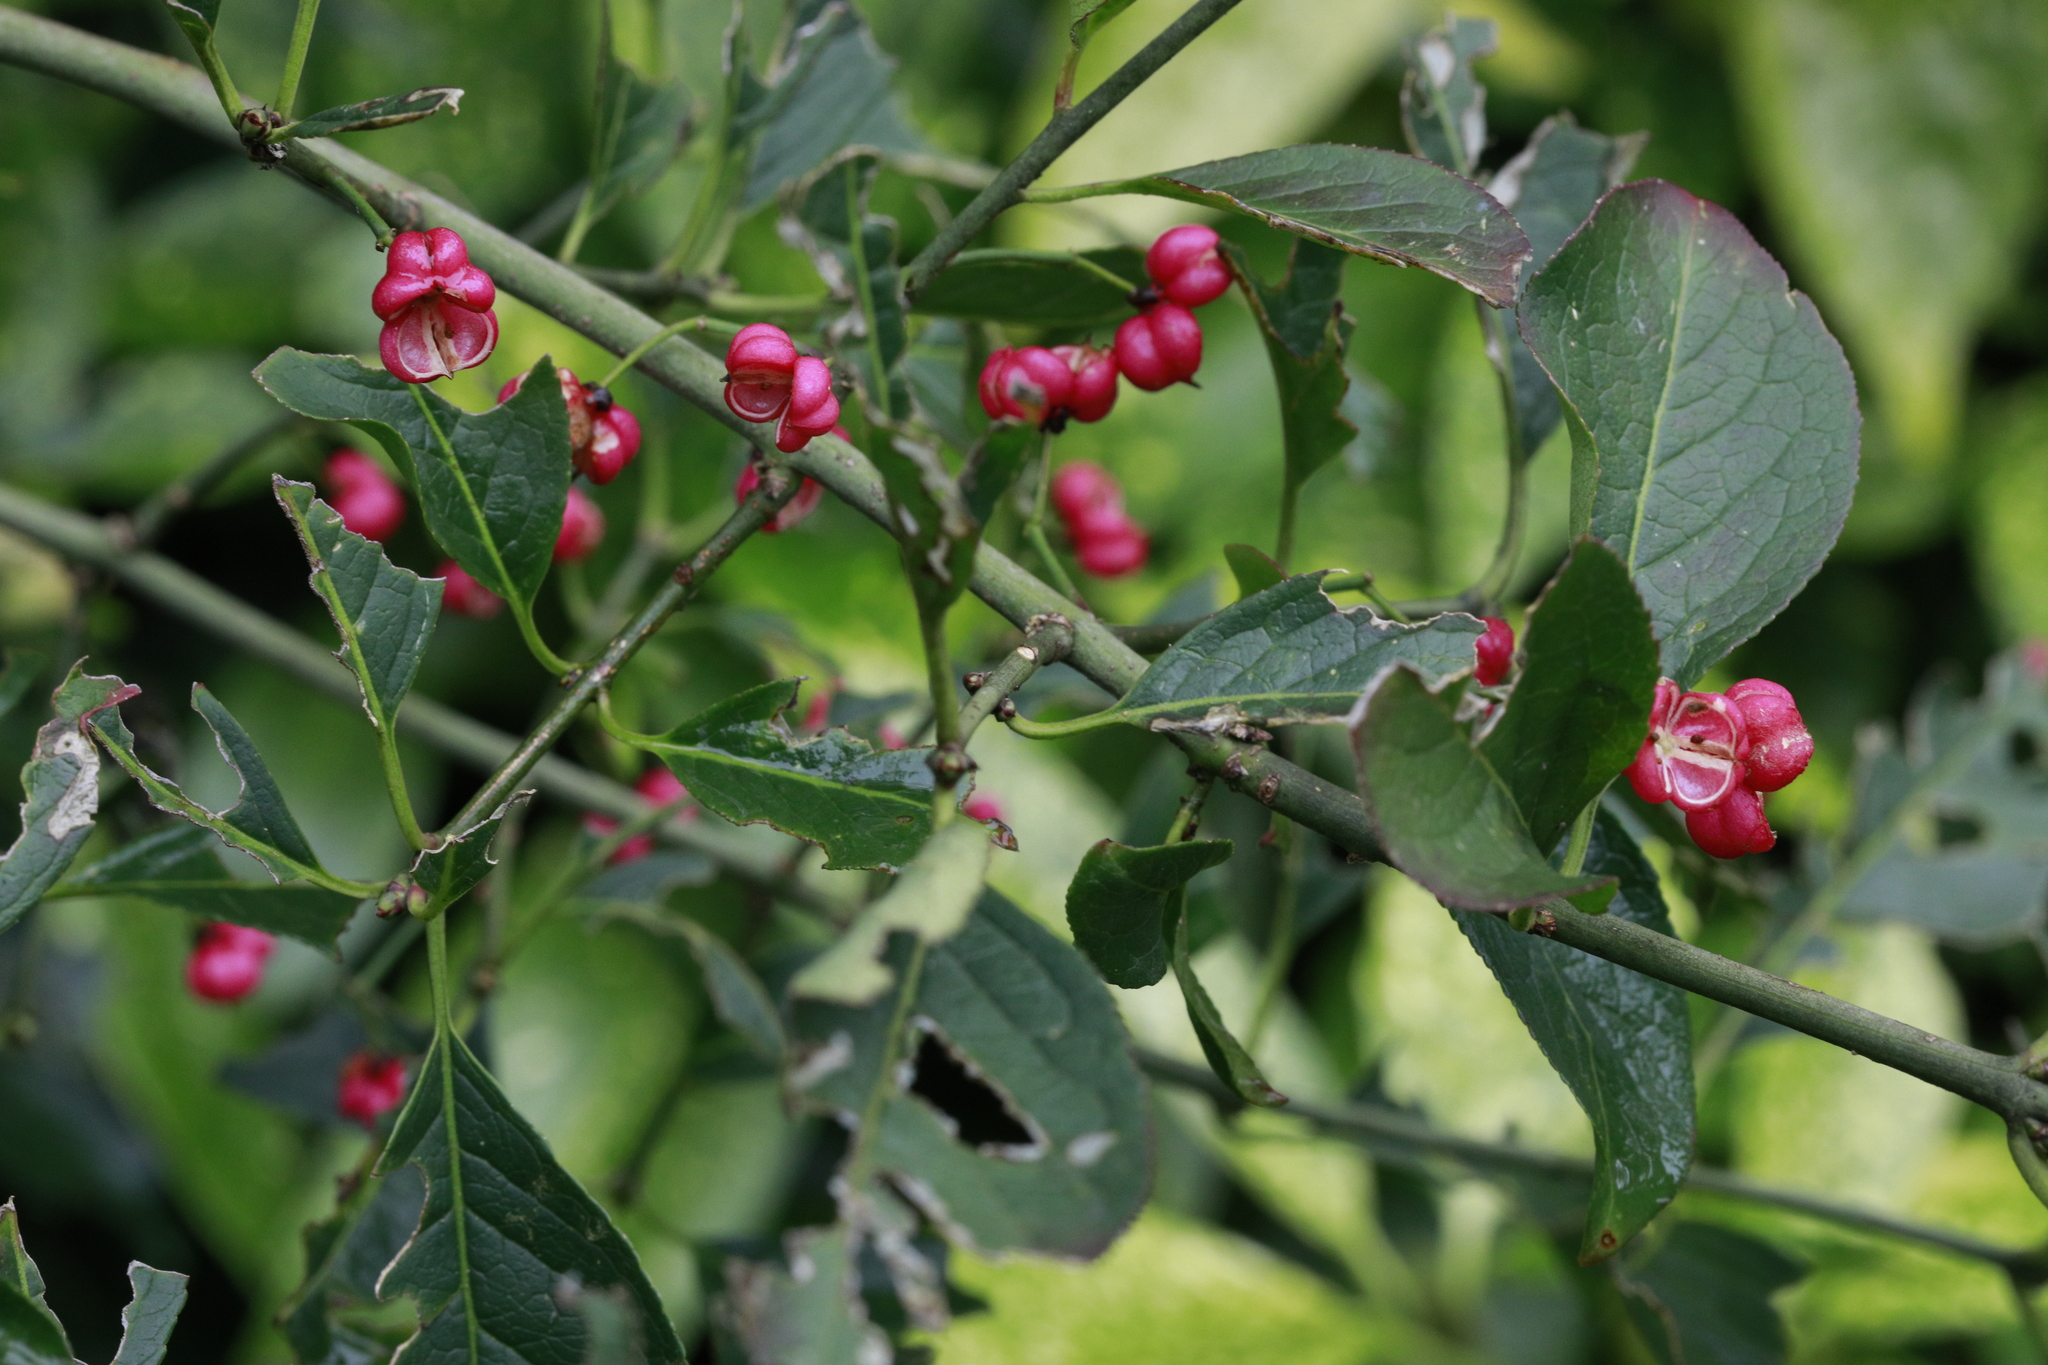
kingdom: Plantae
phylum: Tracheophyta
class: Magnoliopsida
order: Celastrales
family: Celastraceae
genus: Euonymus
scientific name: Euonymus europaeus
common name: Spindle
